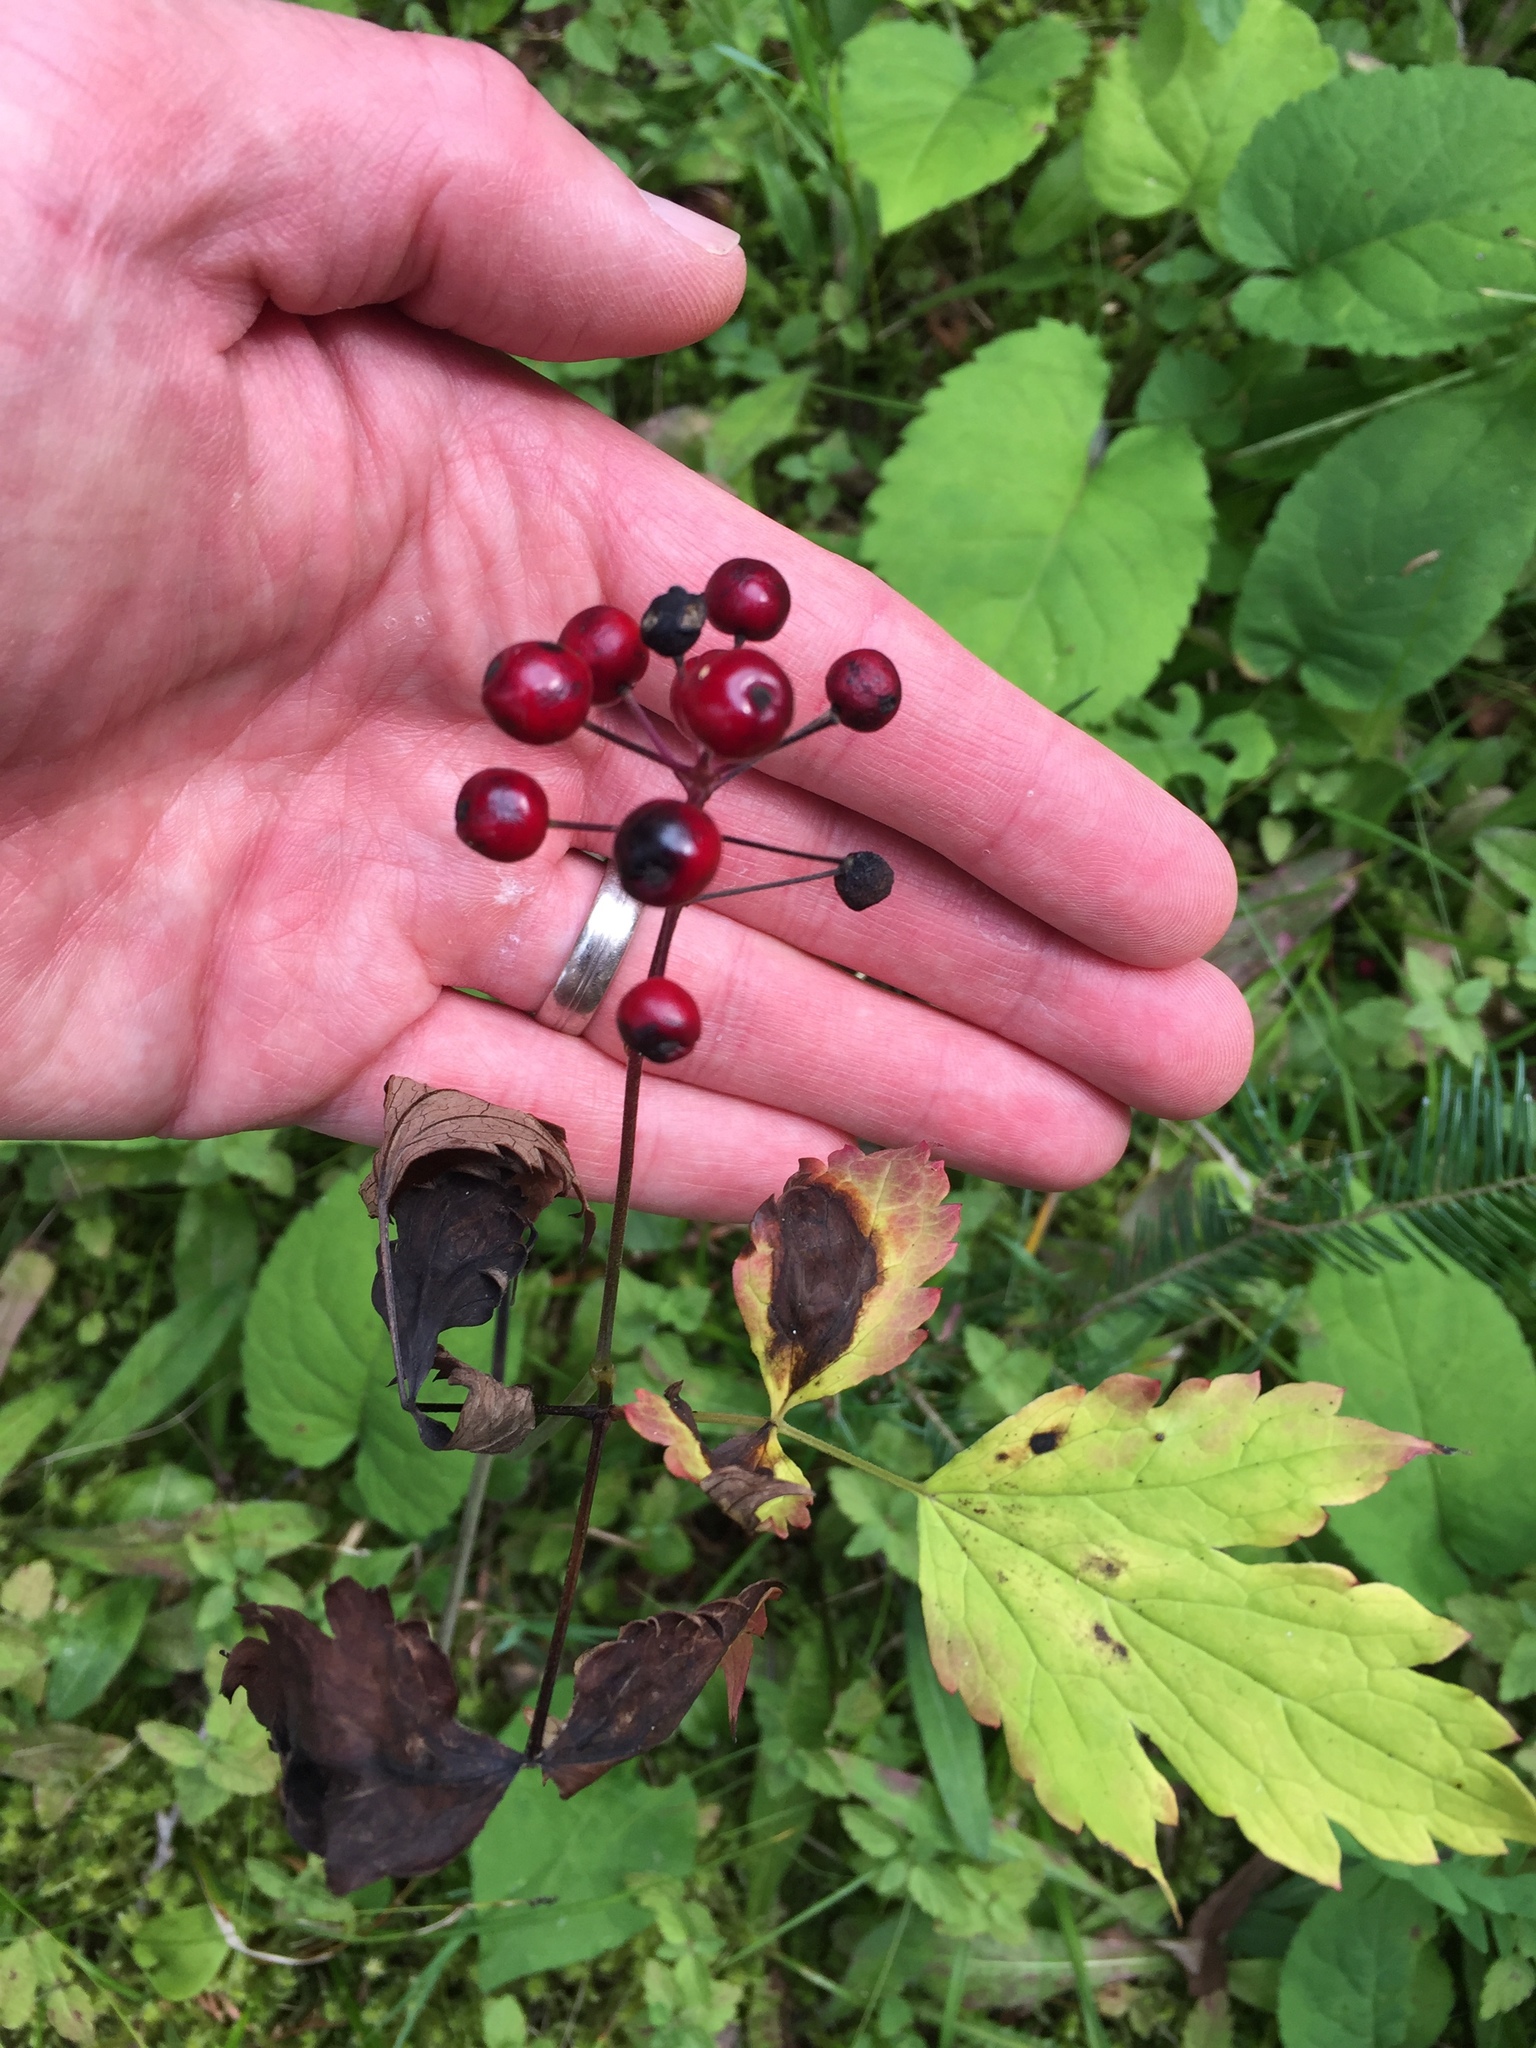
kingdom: Plantae
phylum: Tracheophyta
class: Magnoliopsida
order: Ranunculales
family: Ranunculaceae
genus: Actaea
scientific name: Actaea rubra
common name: Red baneberry
